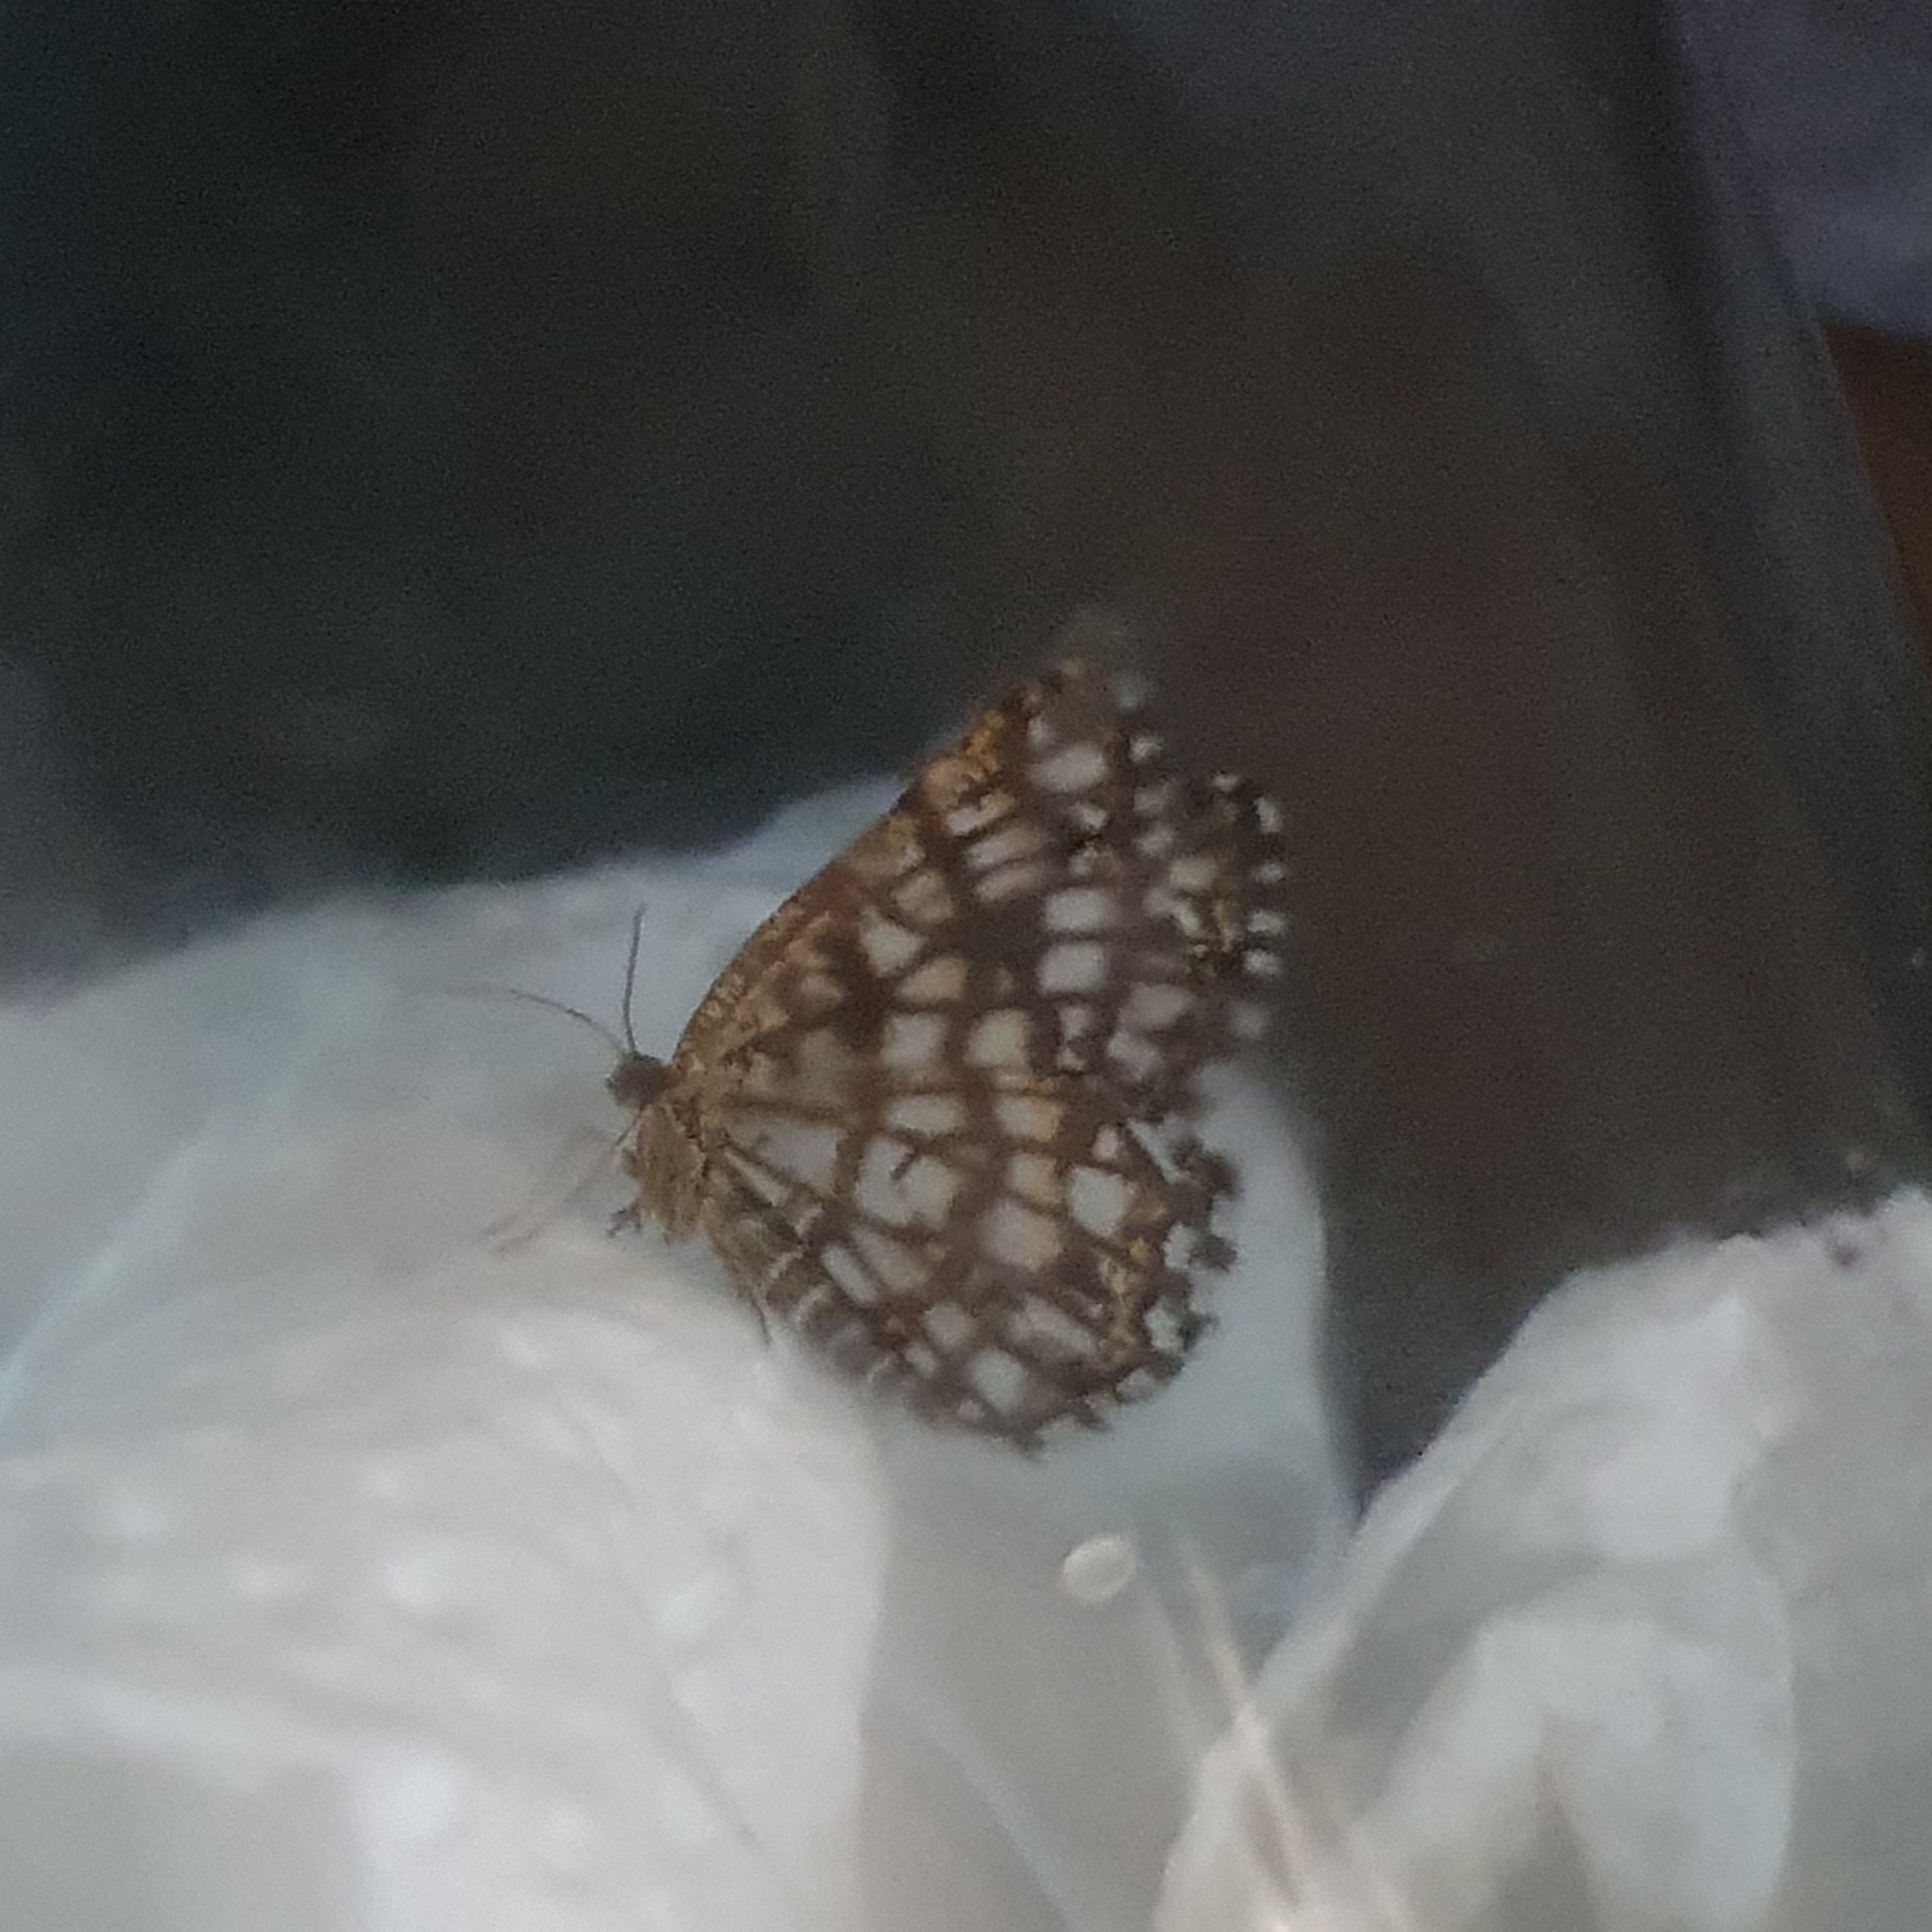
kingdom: Animalia
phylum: Arthropoda
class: Insecta
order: Lepidoptera
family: Geometridae
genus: Chiasmia
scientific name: Chiasmia clathrata
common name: Latticed heath
